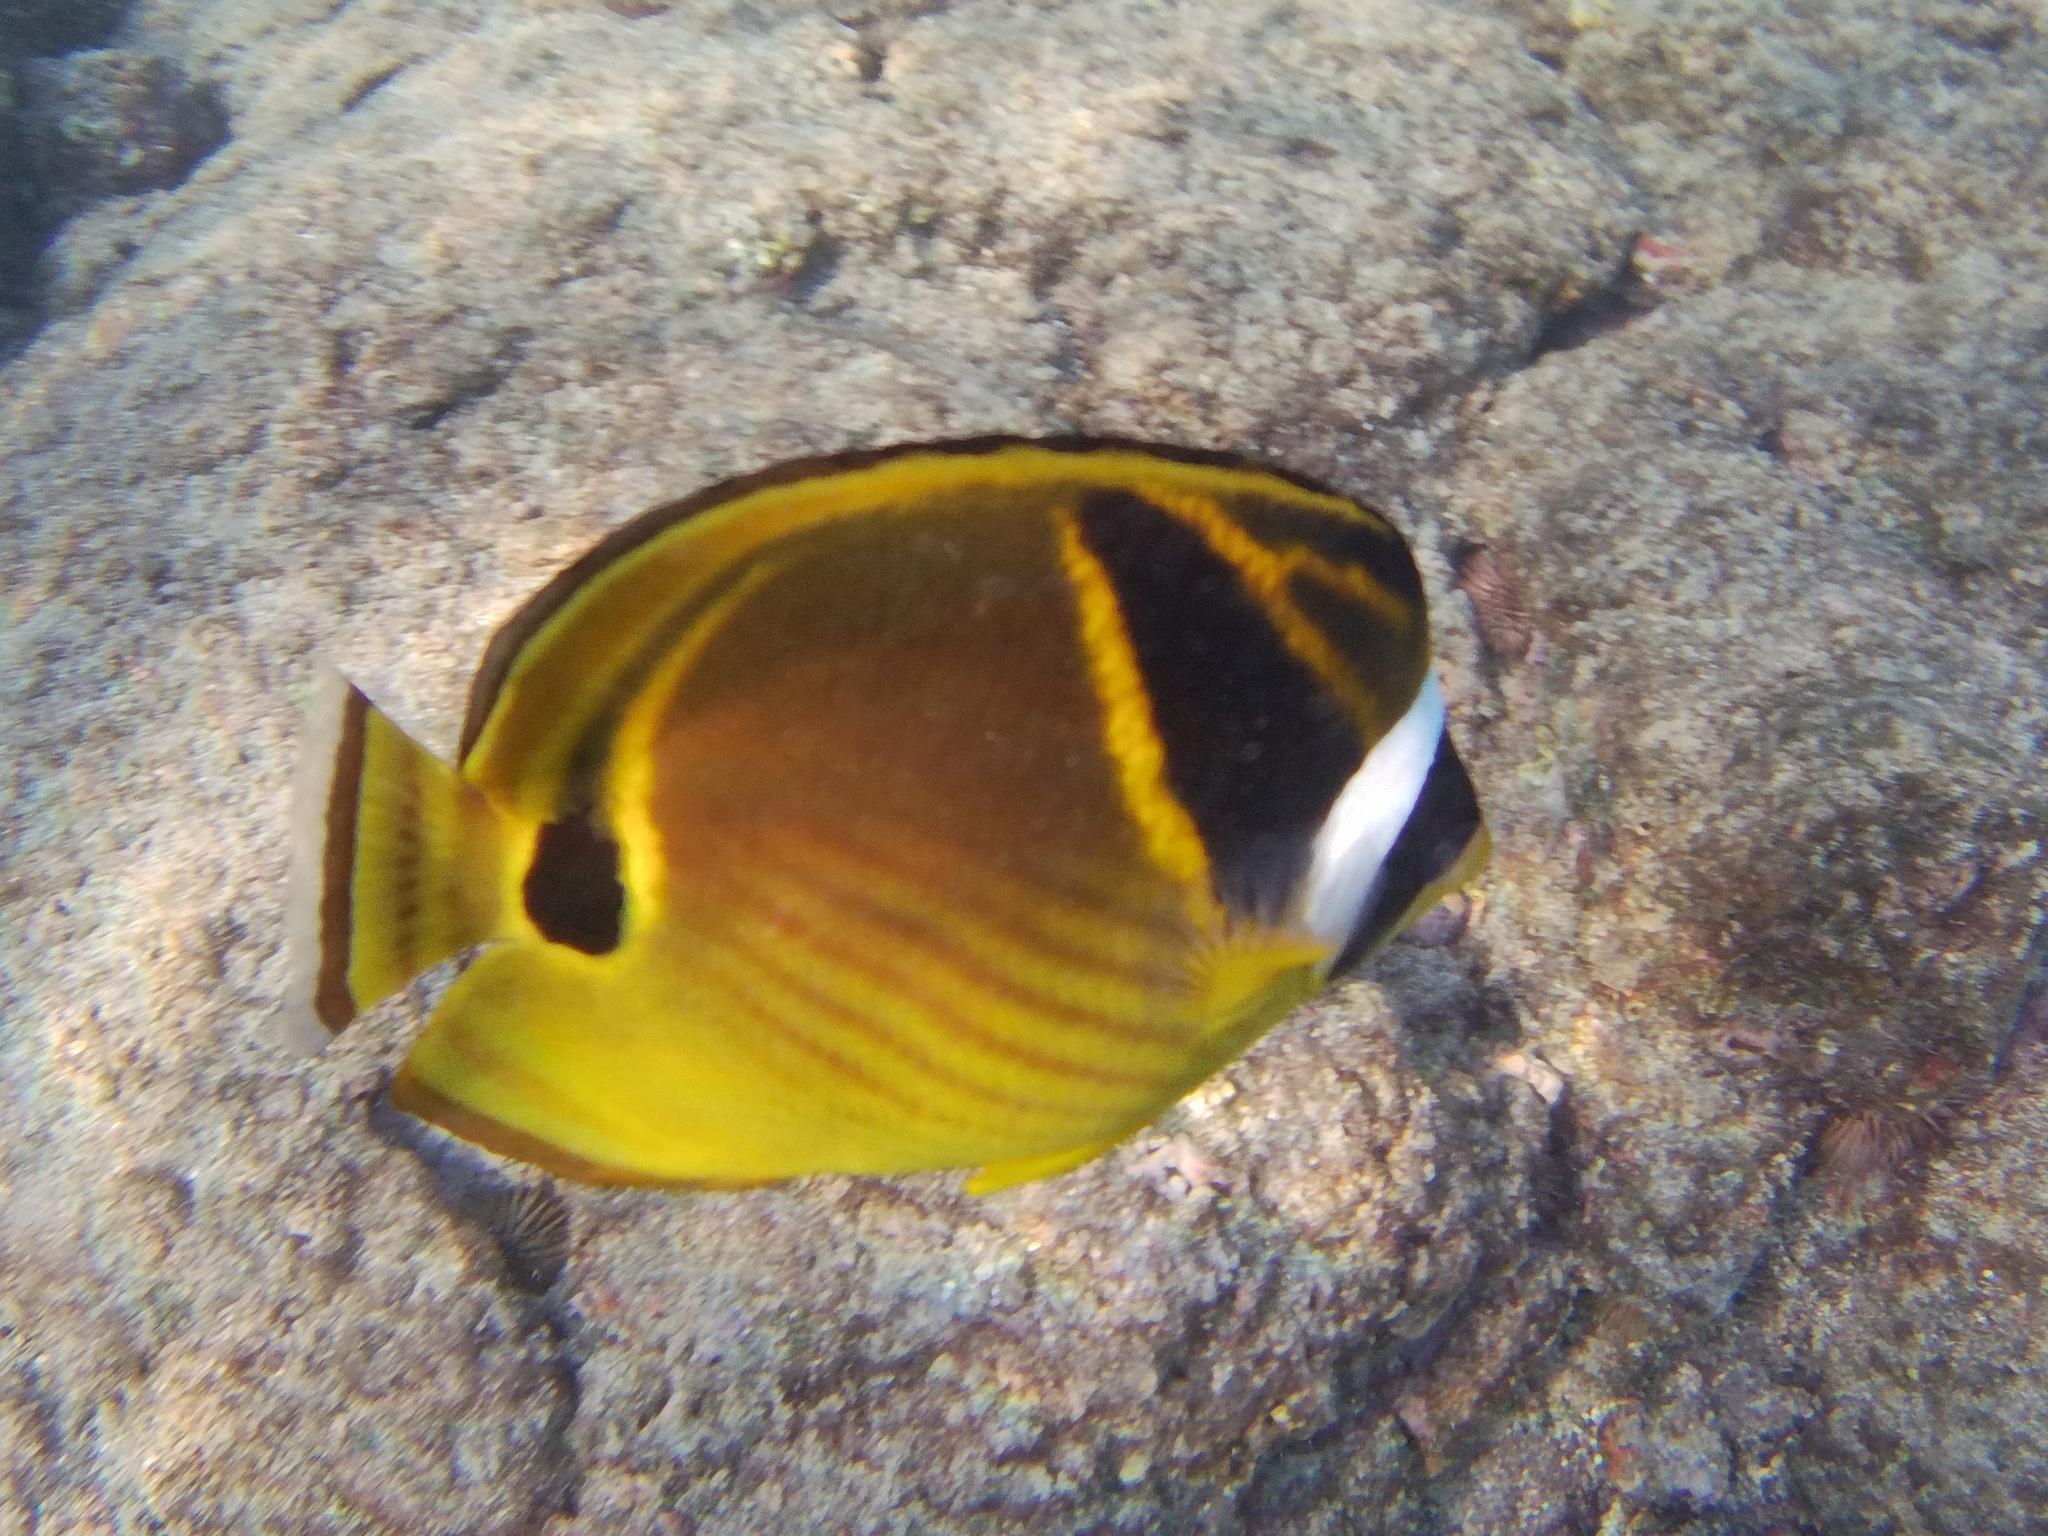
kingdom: Animalia
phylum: Chordata
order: Perciformes
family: Chaetodontidae
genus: Chaetodon
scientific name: Chaetodon lunula
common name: Raccoon butterflyfish
